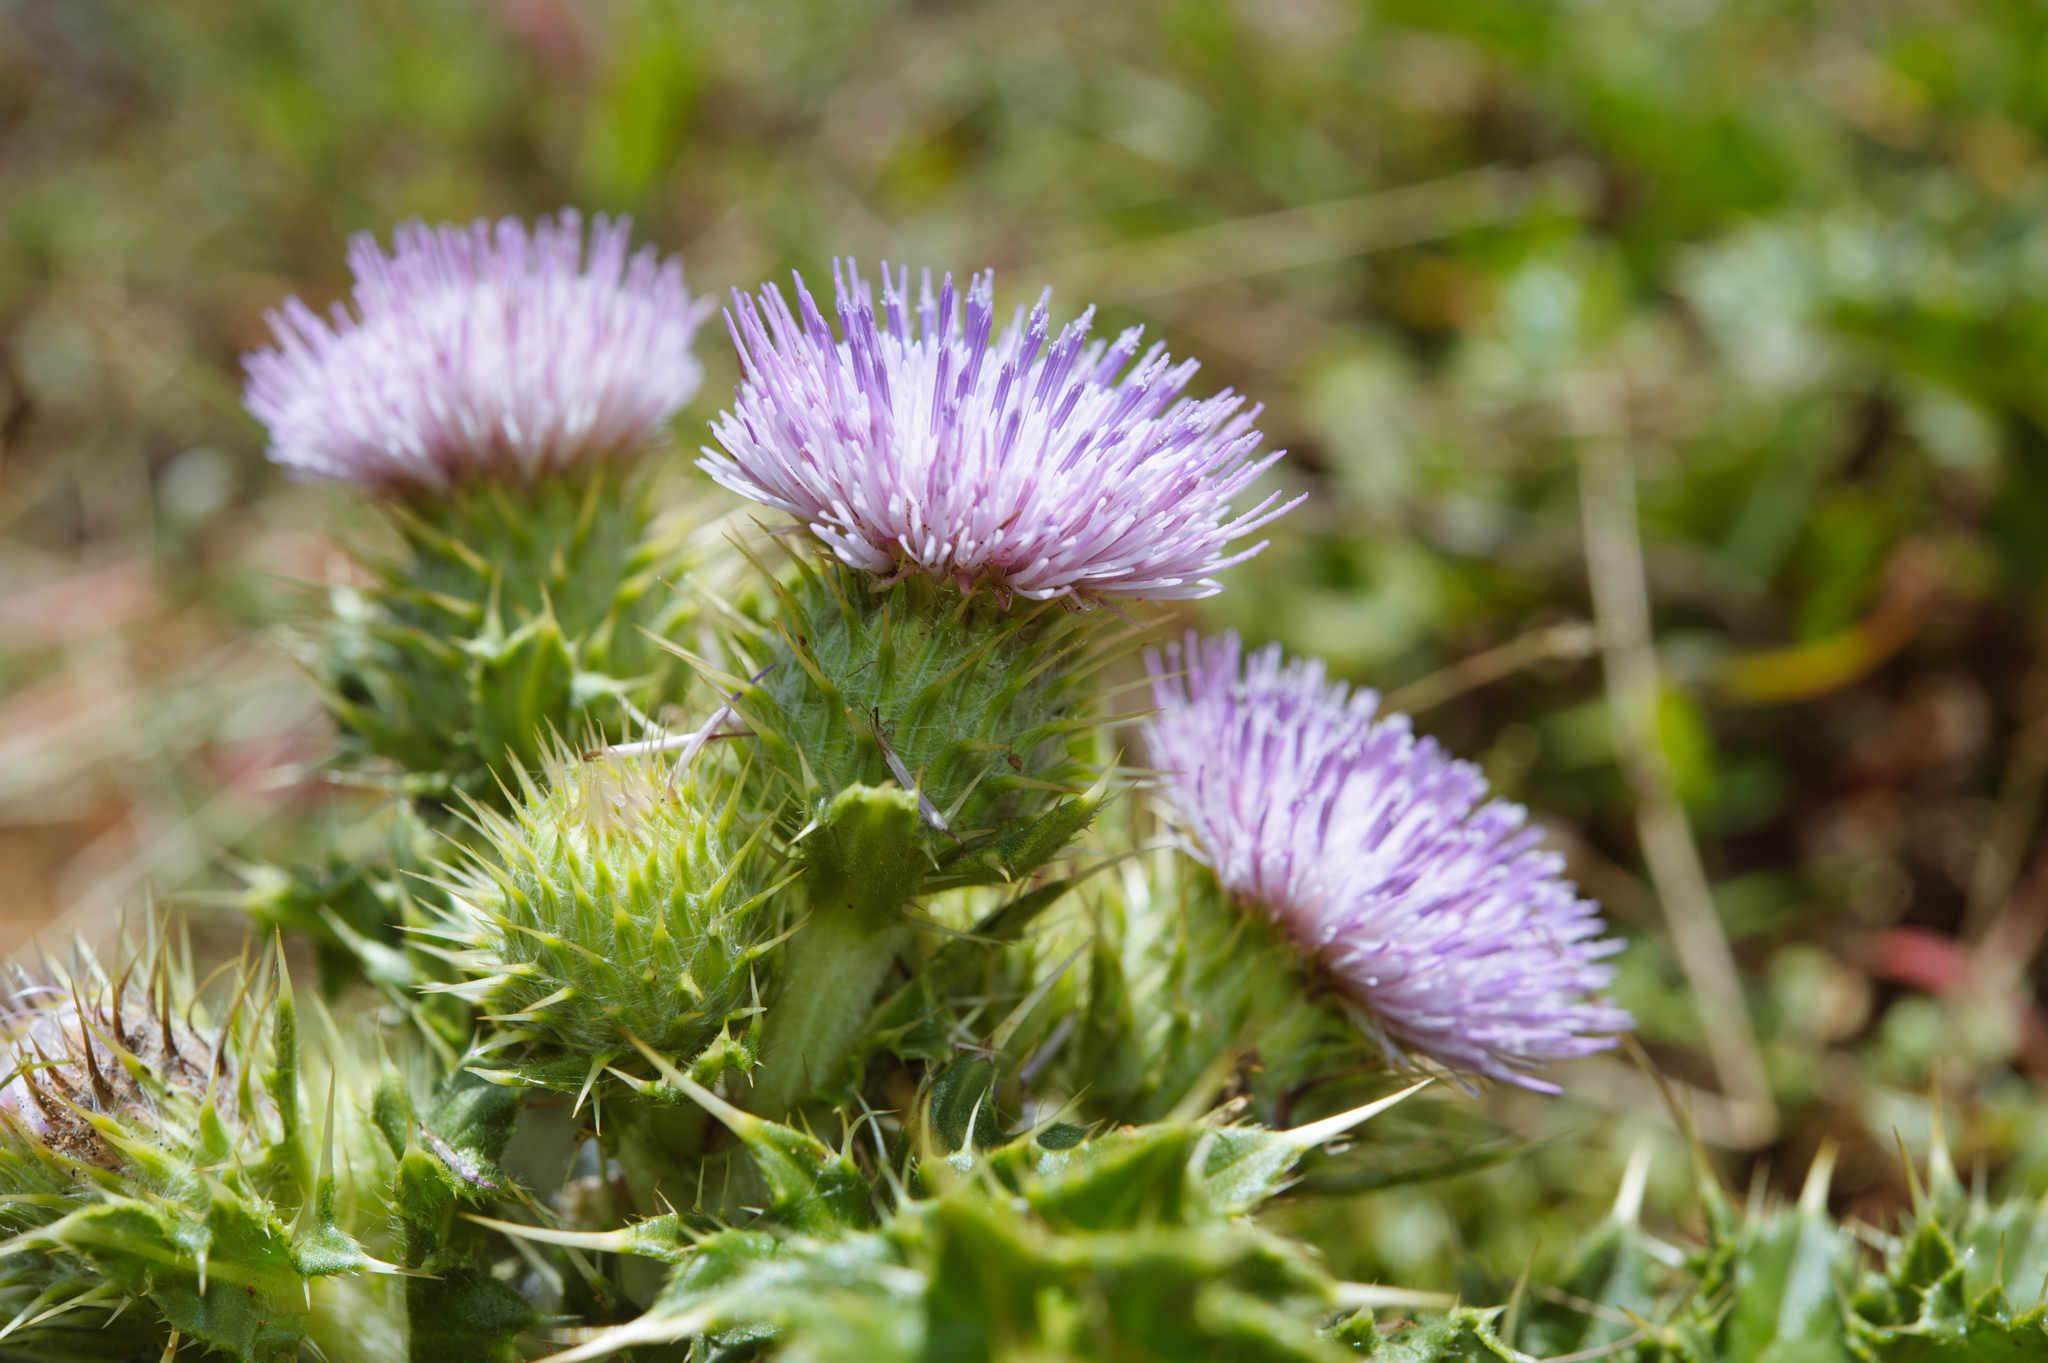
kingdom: Plantae
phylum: Tracheophyta
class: Magnoliopsida
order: Asterales
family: Asteraceae
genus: Cirsium
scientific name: Cirsium brevicaule
